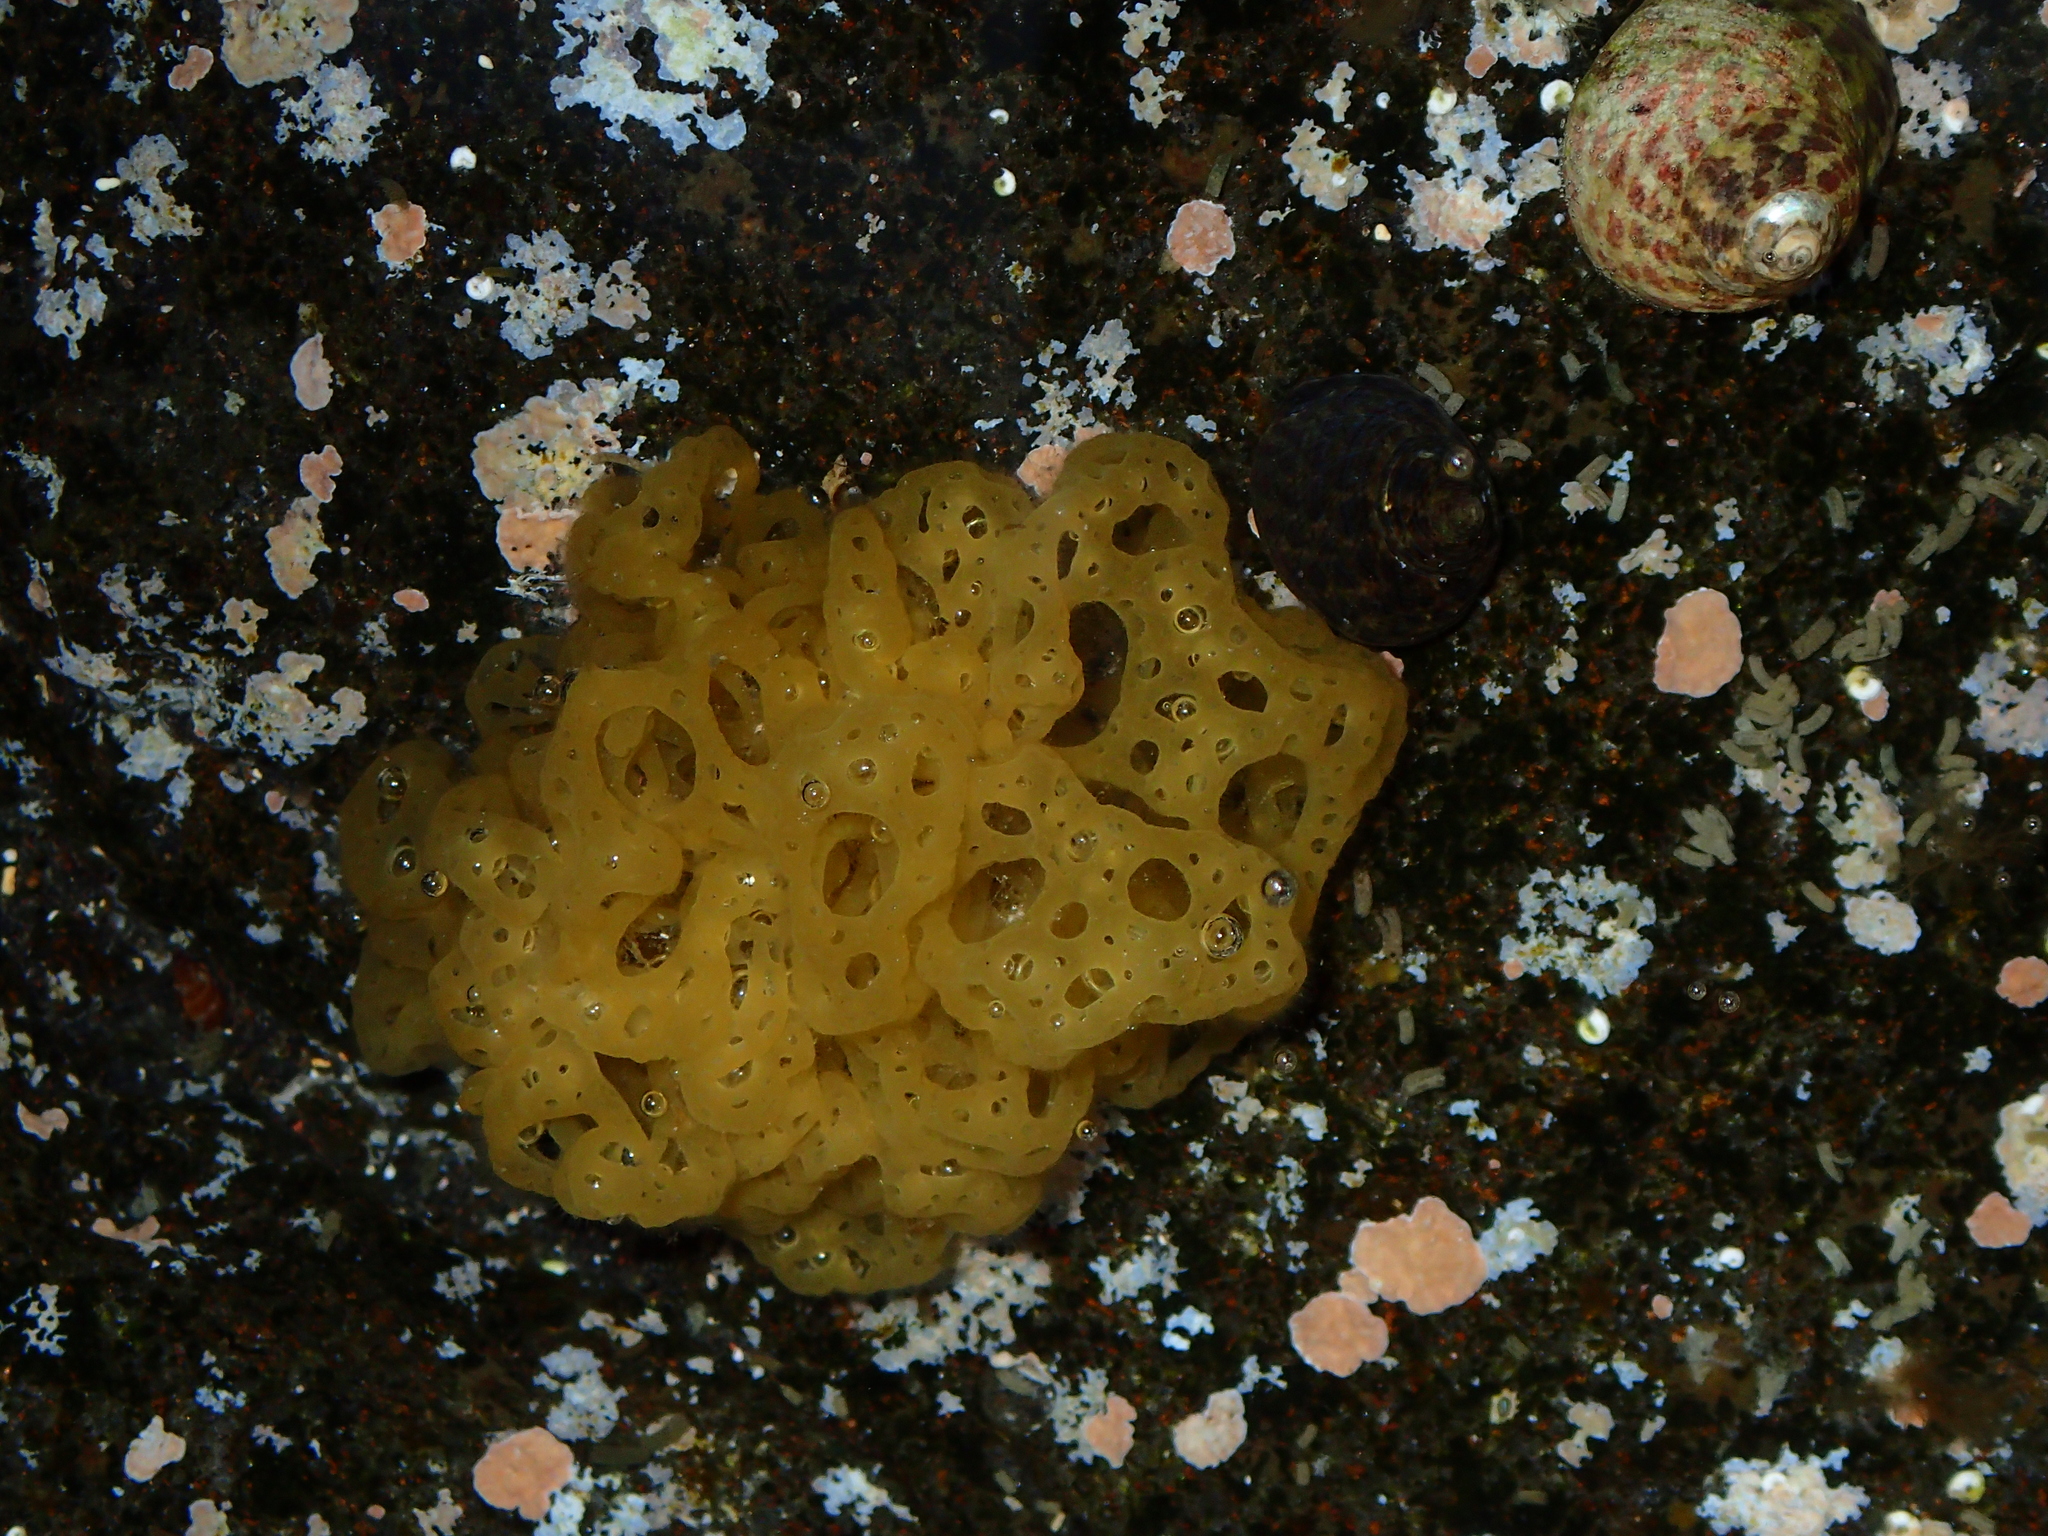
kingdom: Chromista
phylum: Ochrophyta
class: Phaeophyceae
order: Scytosiphonales
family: Scytosiphonaceae
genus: Hydroclathrus
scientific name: Hydroclathrus clathratus
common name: Swiss cheese algae
